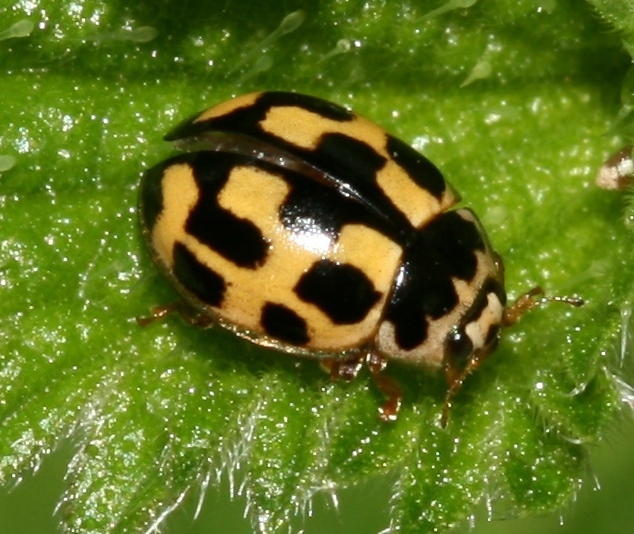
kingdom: Animalia
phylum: Arthropoda
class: Insecta
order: Coleoptera
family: Coccinellidae
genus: Propylaea
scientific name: Propylaea quatuordecimpunctata
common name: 14-spotted ladybird beetle
